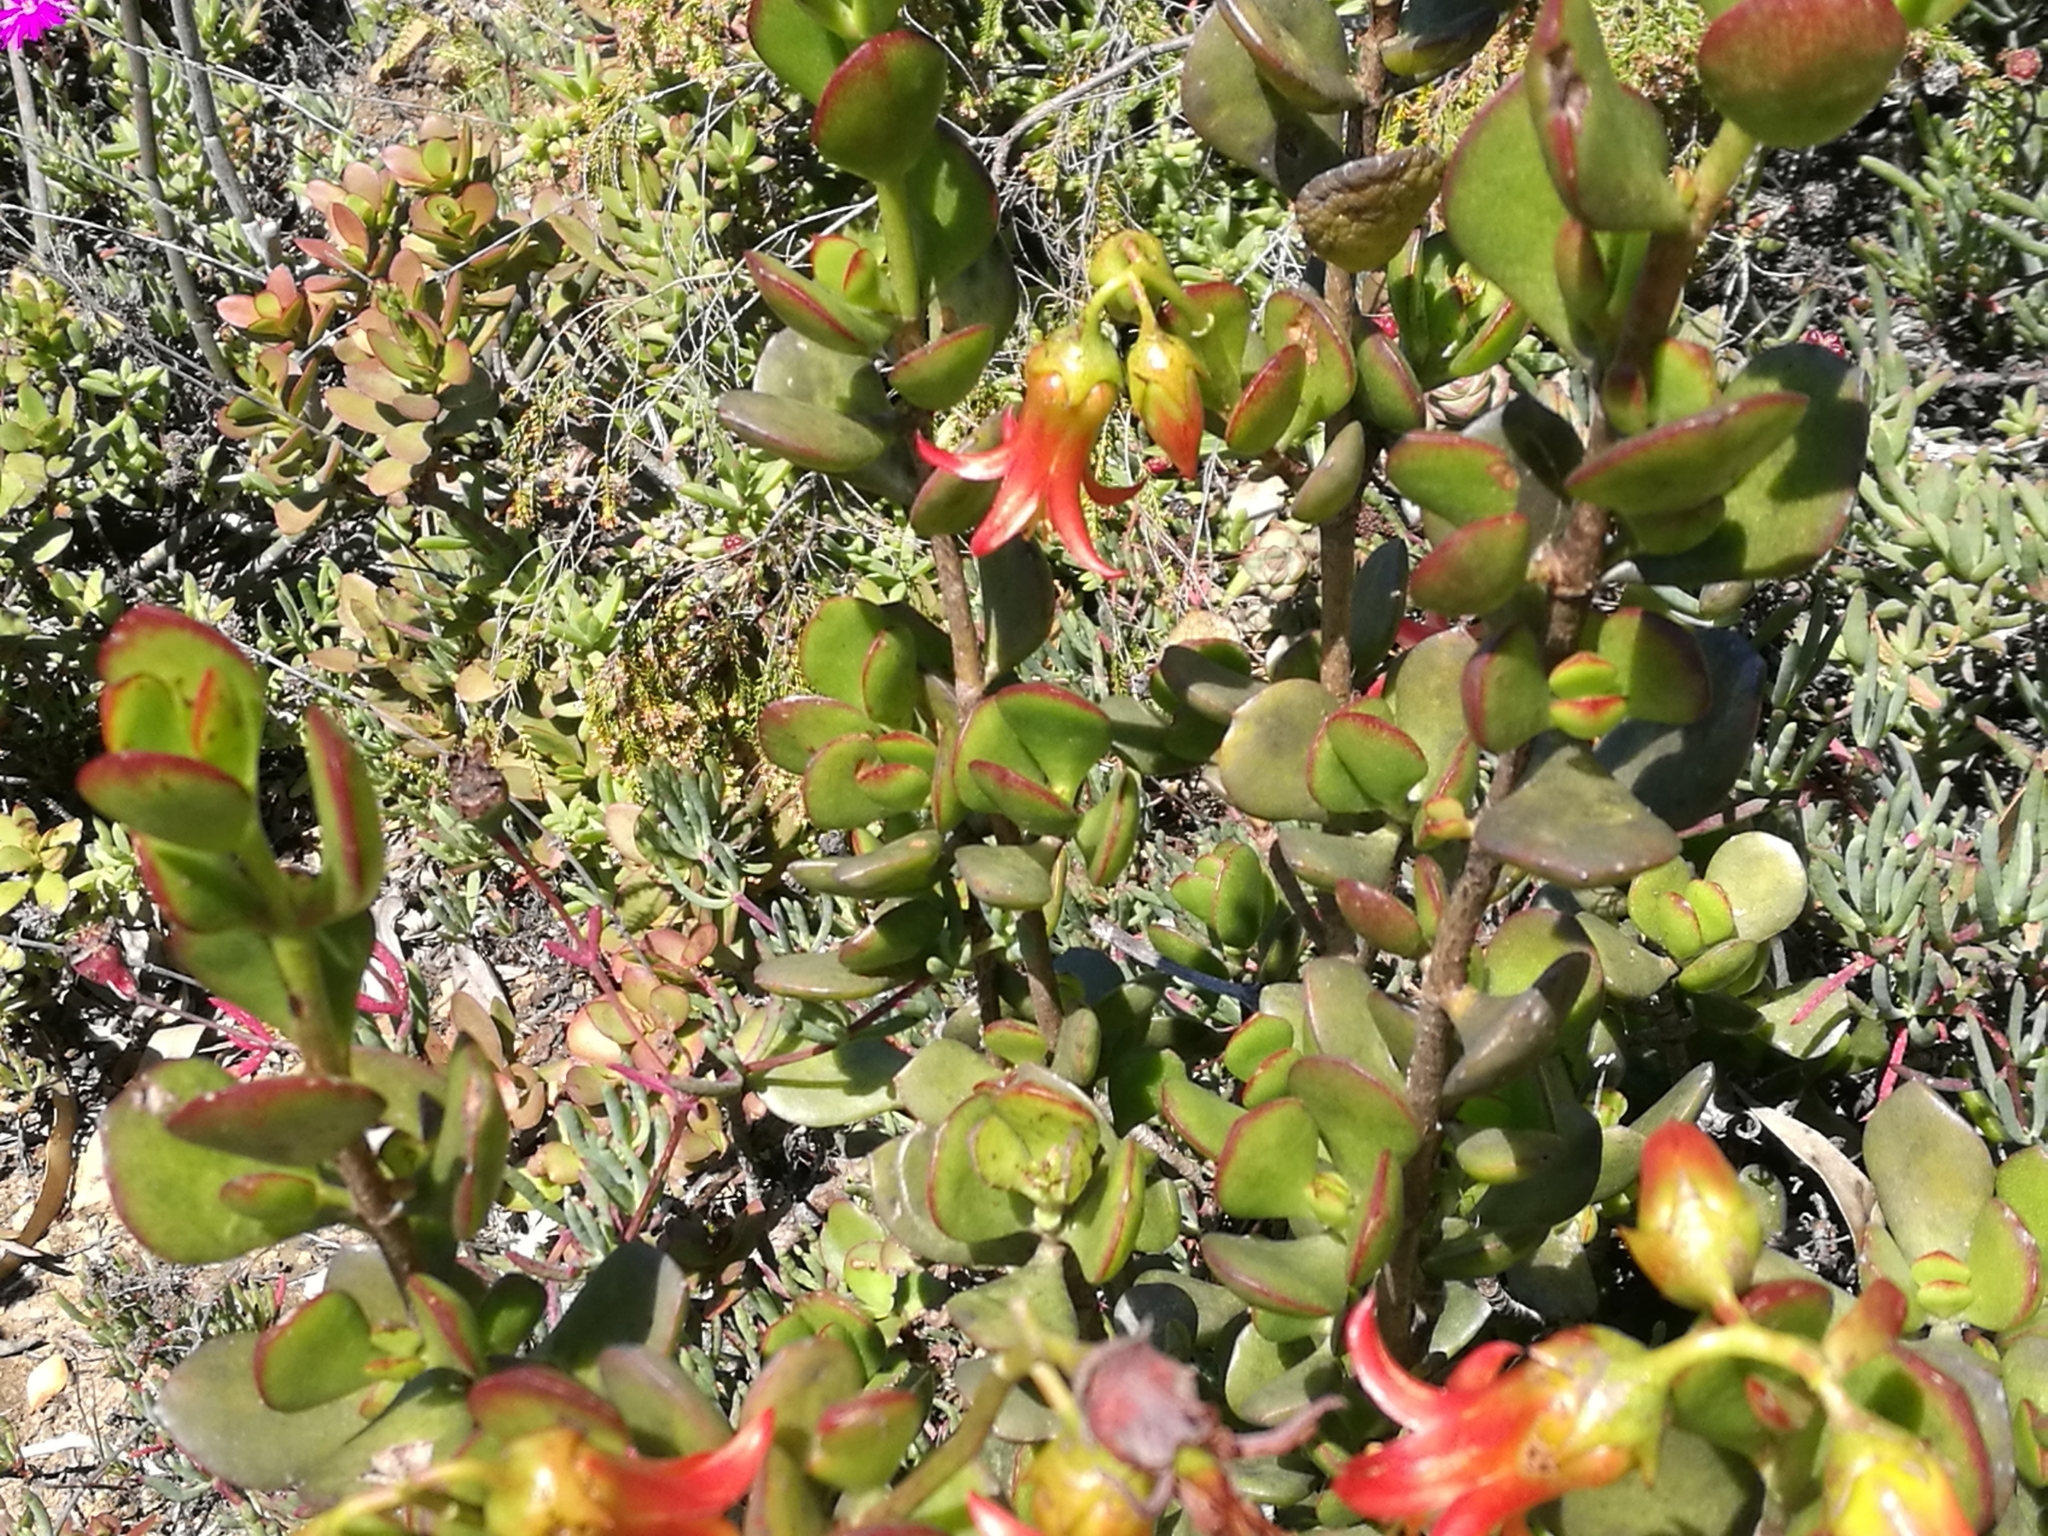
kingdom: Plantae
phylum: Tracheophyta
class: Magnoliopsida
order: Saxifragales
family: Crassulaceae
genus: Cotyledon
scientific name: Cotyledon woodii
